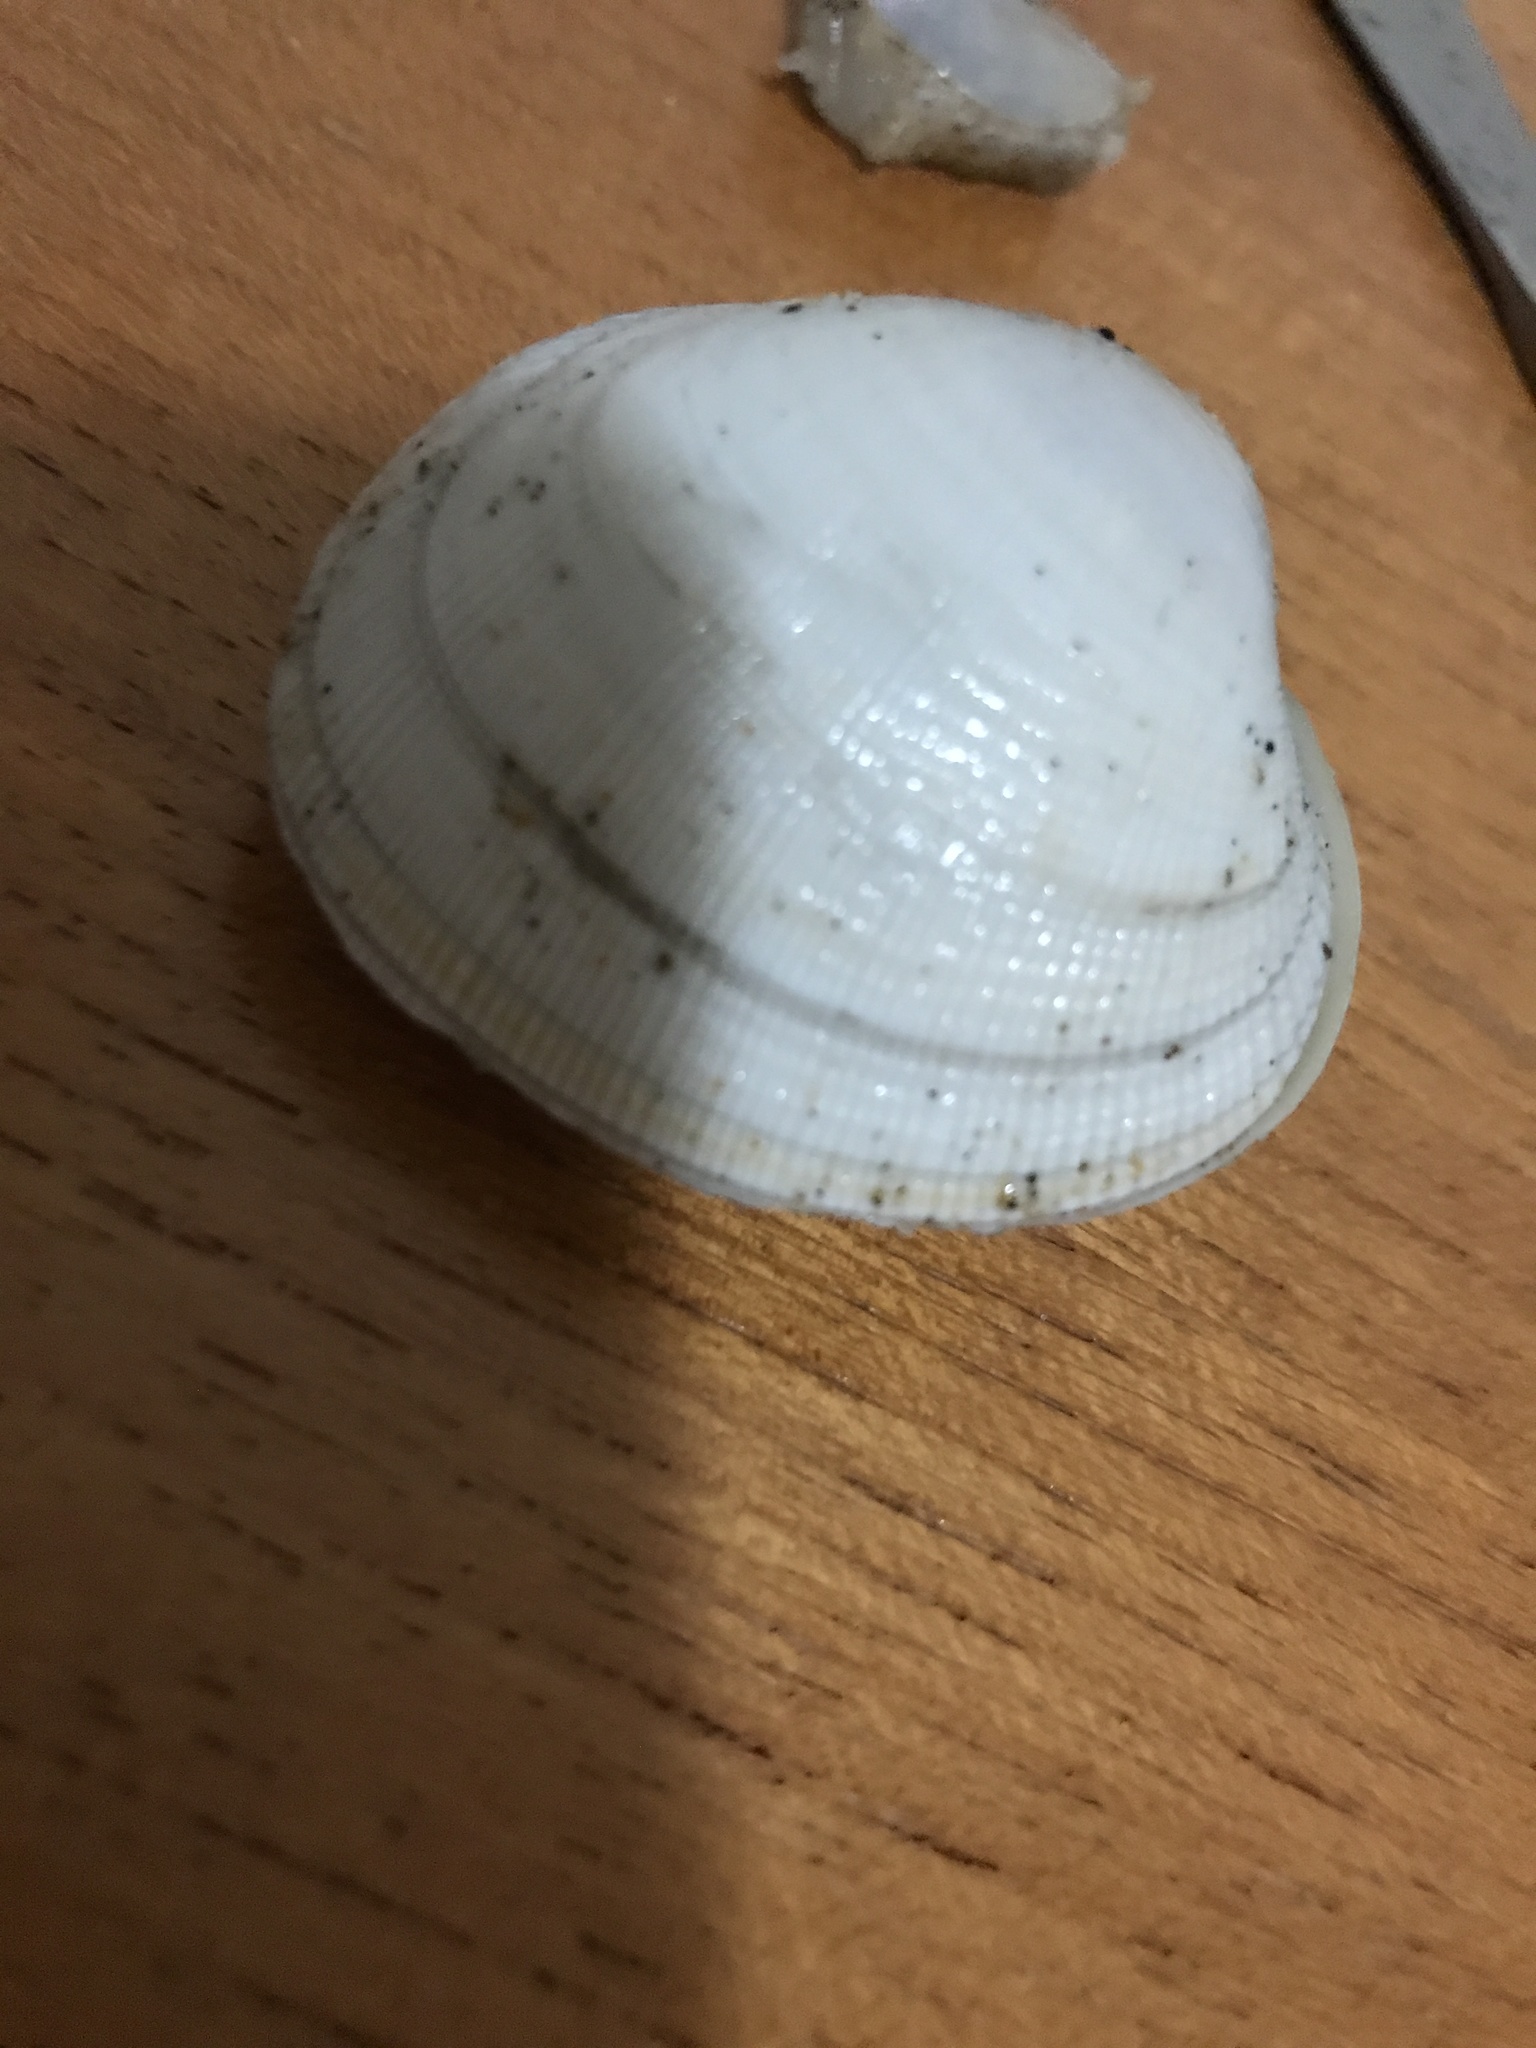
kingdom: Animalia
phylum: Mollusca
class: Bivalvia
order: Venerida
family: Veneridae
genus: Leukoma
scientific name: Leukoma staminea
